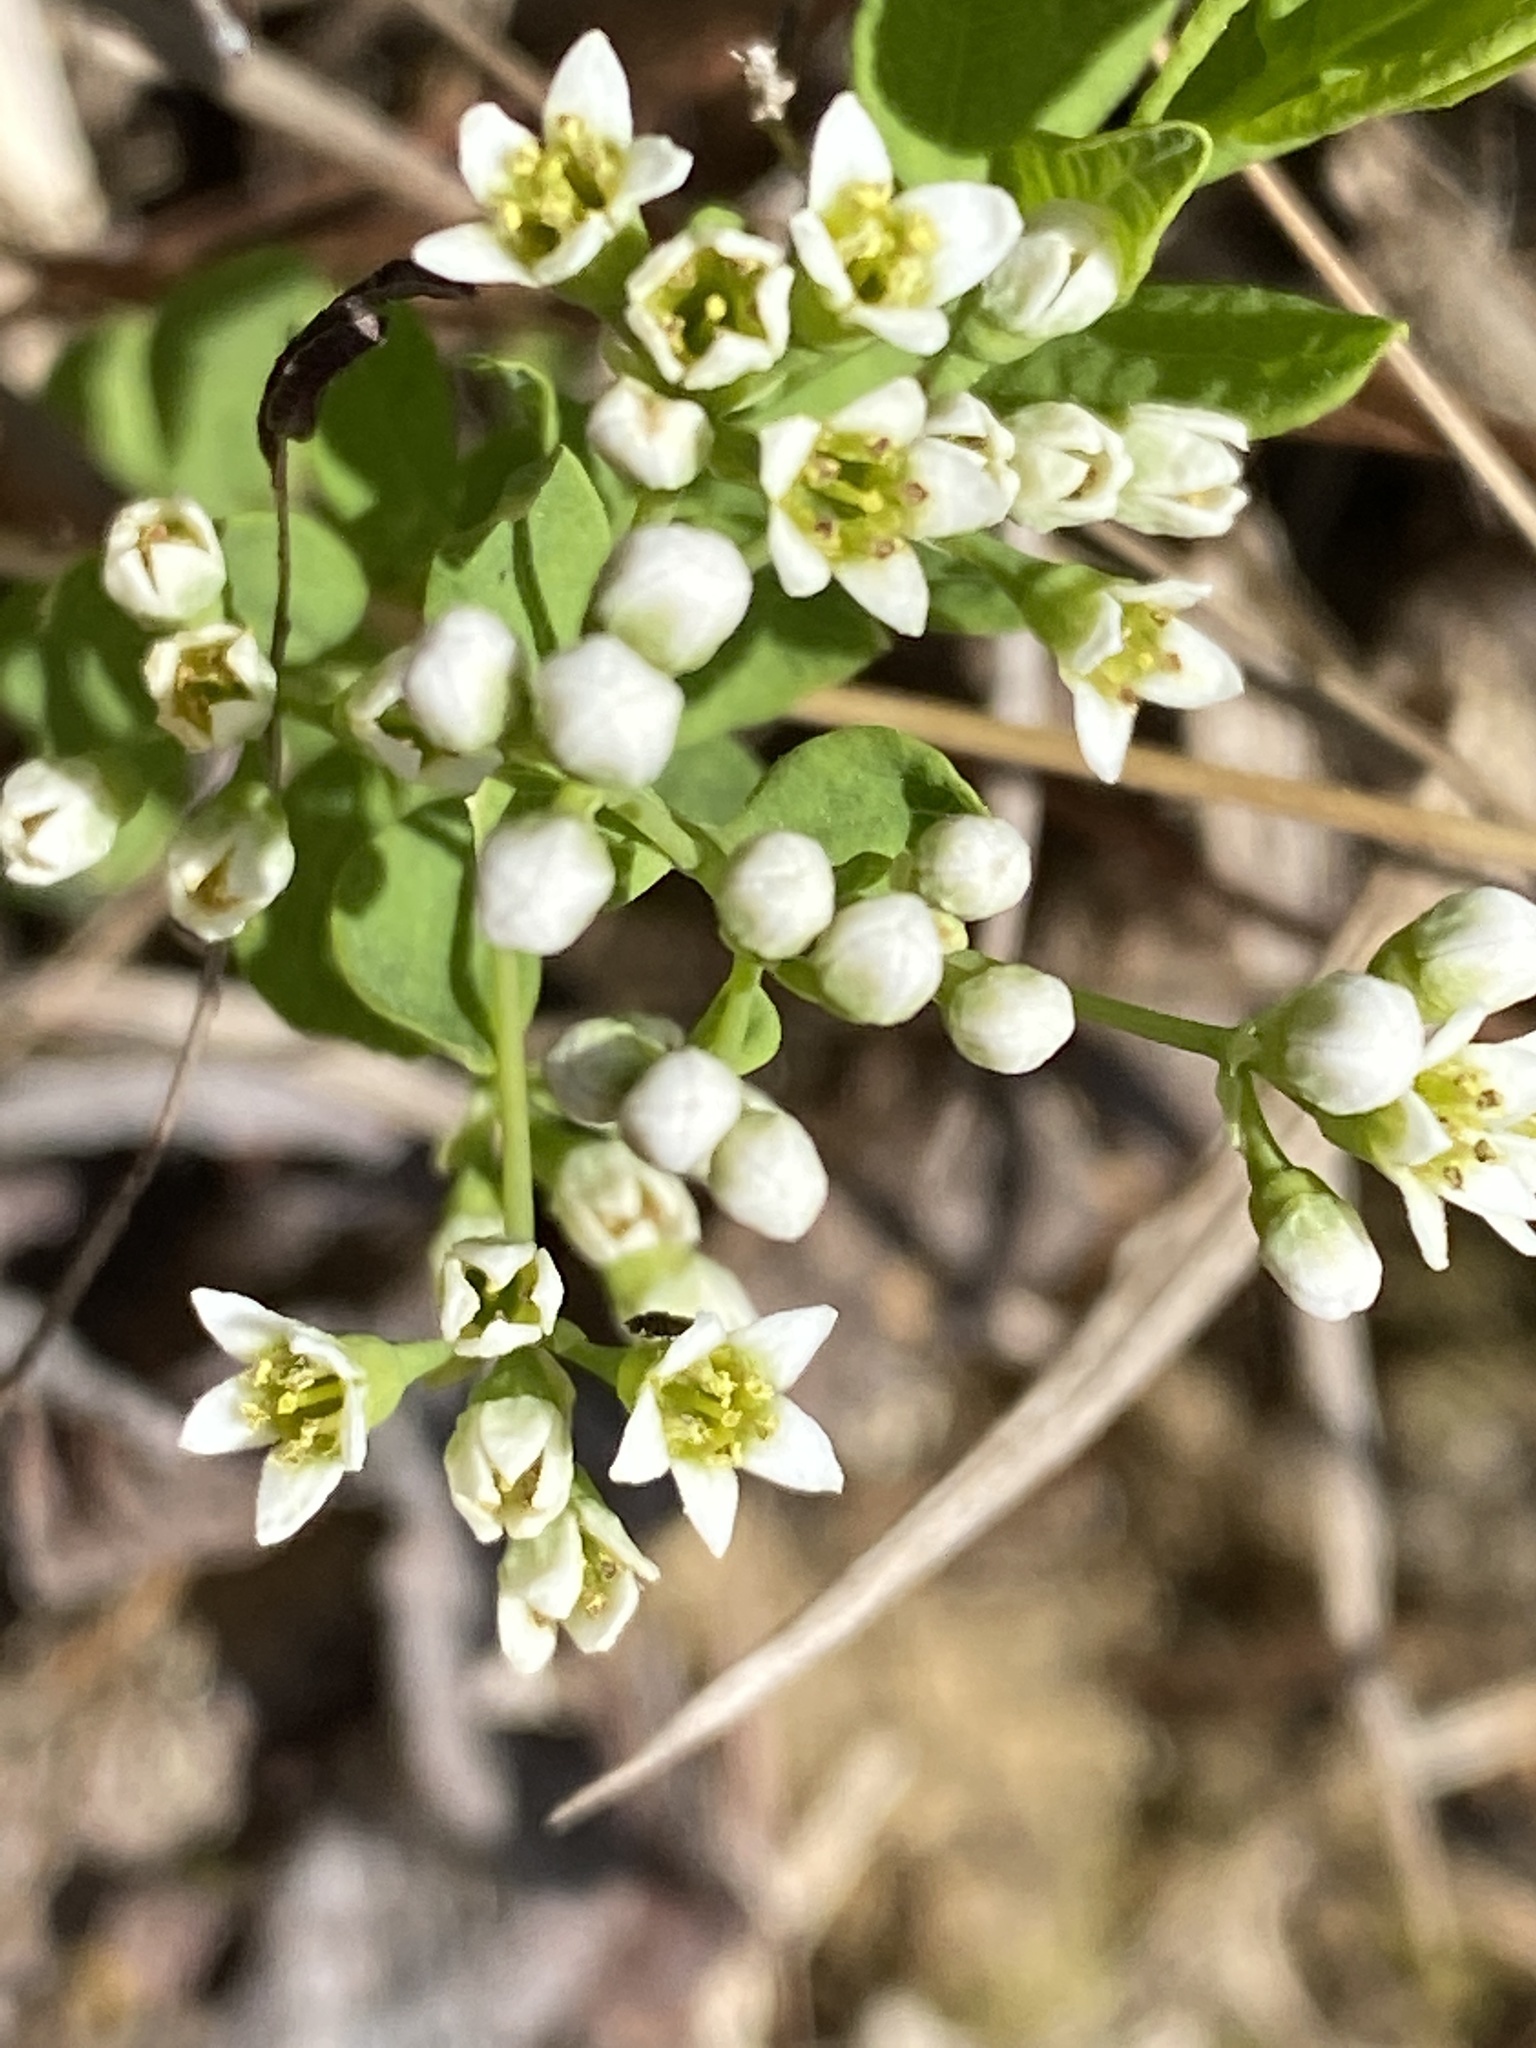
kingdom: Plantae
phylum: Tracheophyta
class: Magnoliopsida
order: Santalales
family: Comandraceae
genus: Comandra
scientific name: Comandra umbellata
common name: Bastard toadflax
